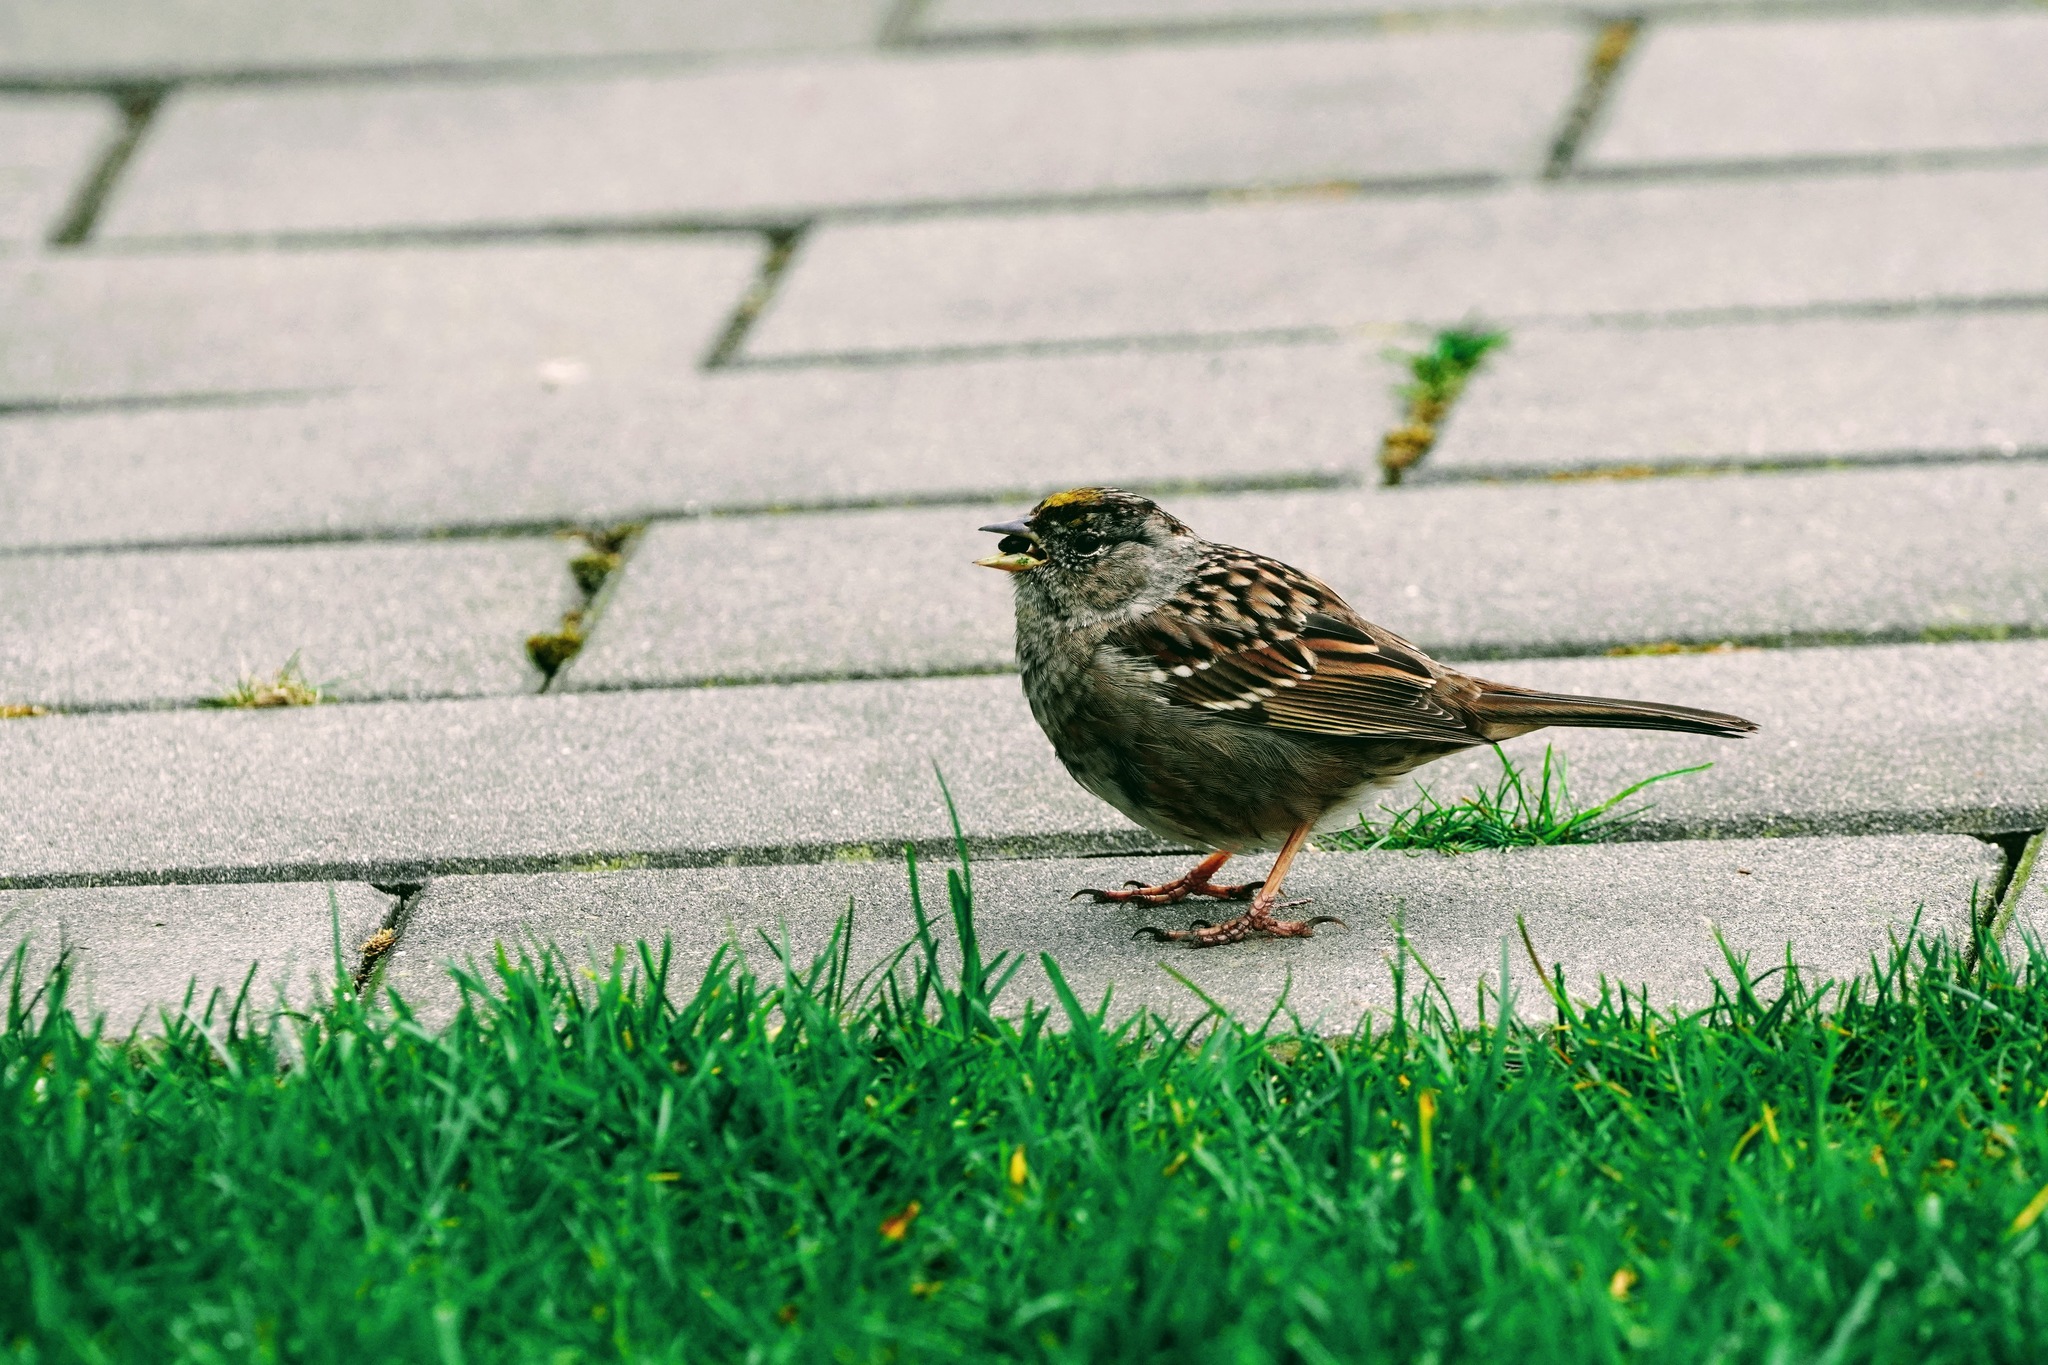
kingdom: Animalia
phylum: Chordata
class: Aves
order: Passeriformes
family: Passerellidae
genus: Zonotrichia
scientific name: Zonotrichia atricapilla
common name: Golden-crowned sparrow
